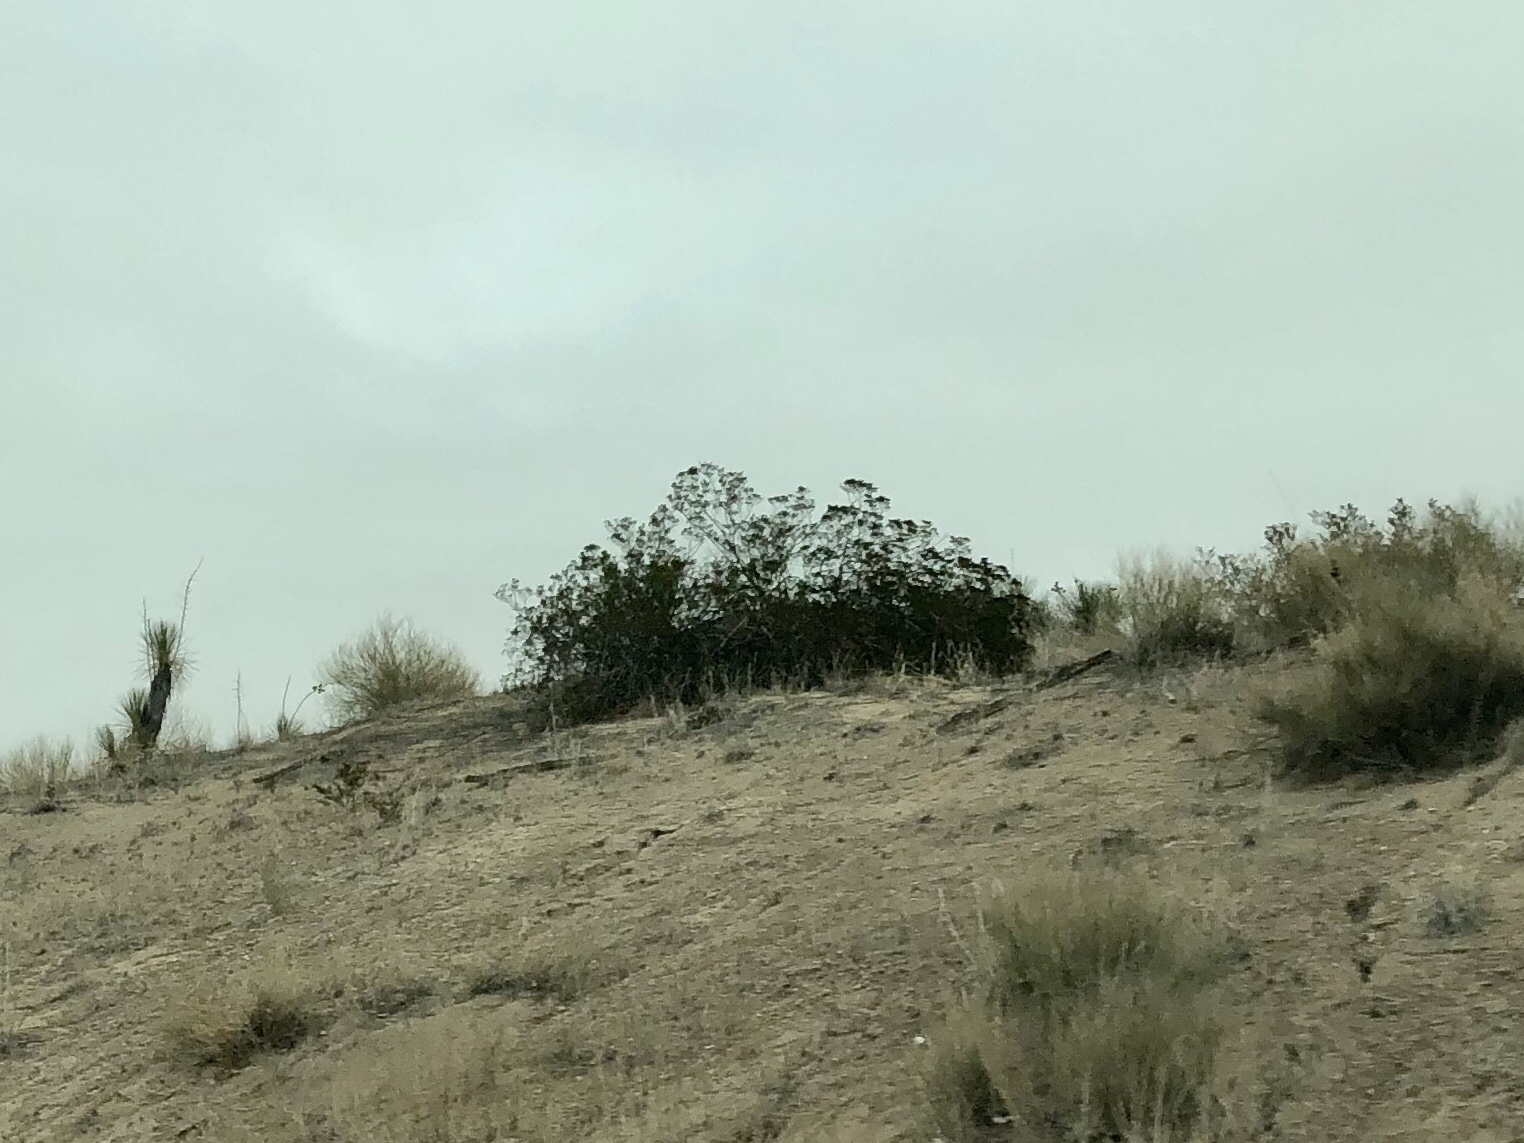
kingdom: Plantae
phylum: Tracheophyta
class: Magnoliopsida
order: Zygophyllales
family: Zygophyllaceae
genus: Larrea
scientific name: Larrea tridentata
